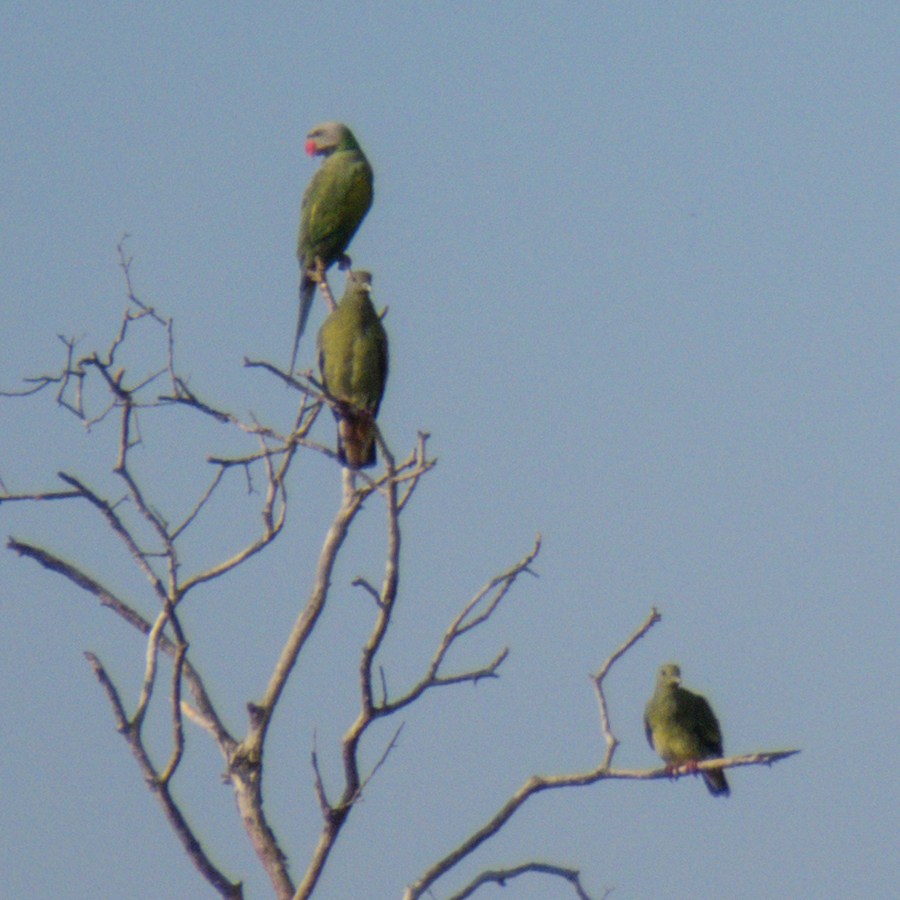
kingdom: Animalia
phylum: Chordata
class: Aves
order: Psittaciformes
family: Psittacidae
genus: Psittacula
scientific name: Psittacula alexandri
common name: Red-breasted parakeet
